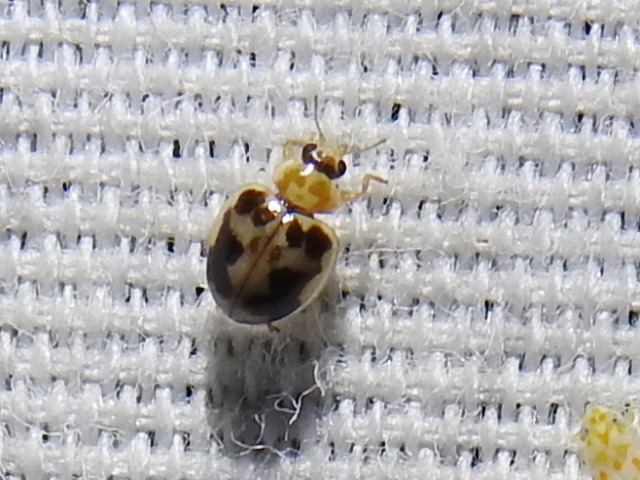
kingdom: Animalia
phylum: Arthropoda
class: Insecta
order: Coleoptera
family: Coccinellidae
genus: Psyllobora
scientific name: Psyllobora renifer
